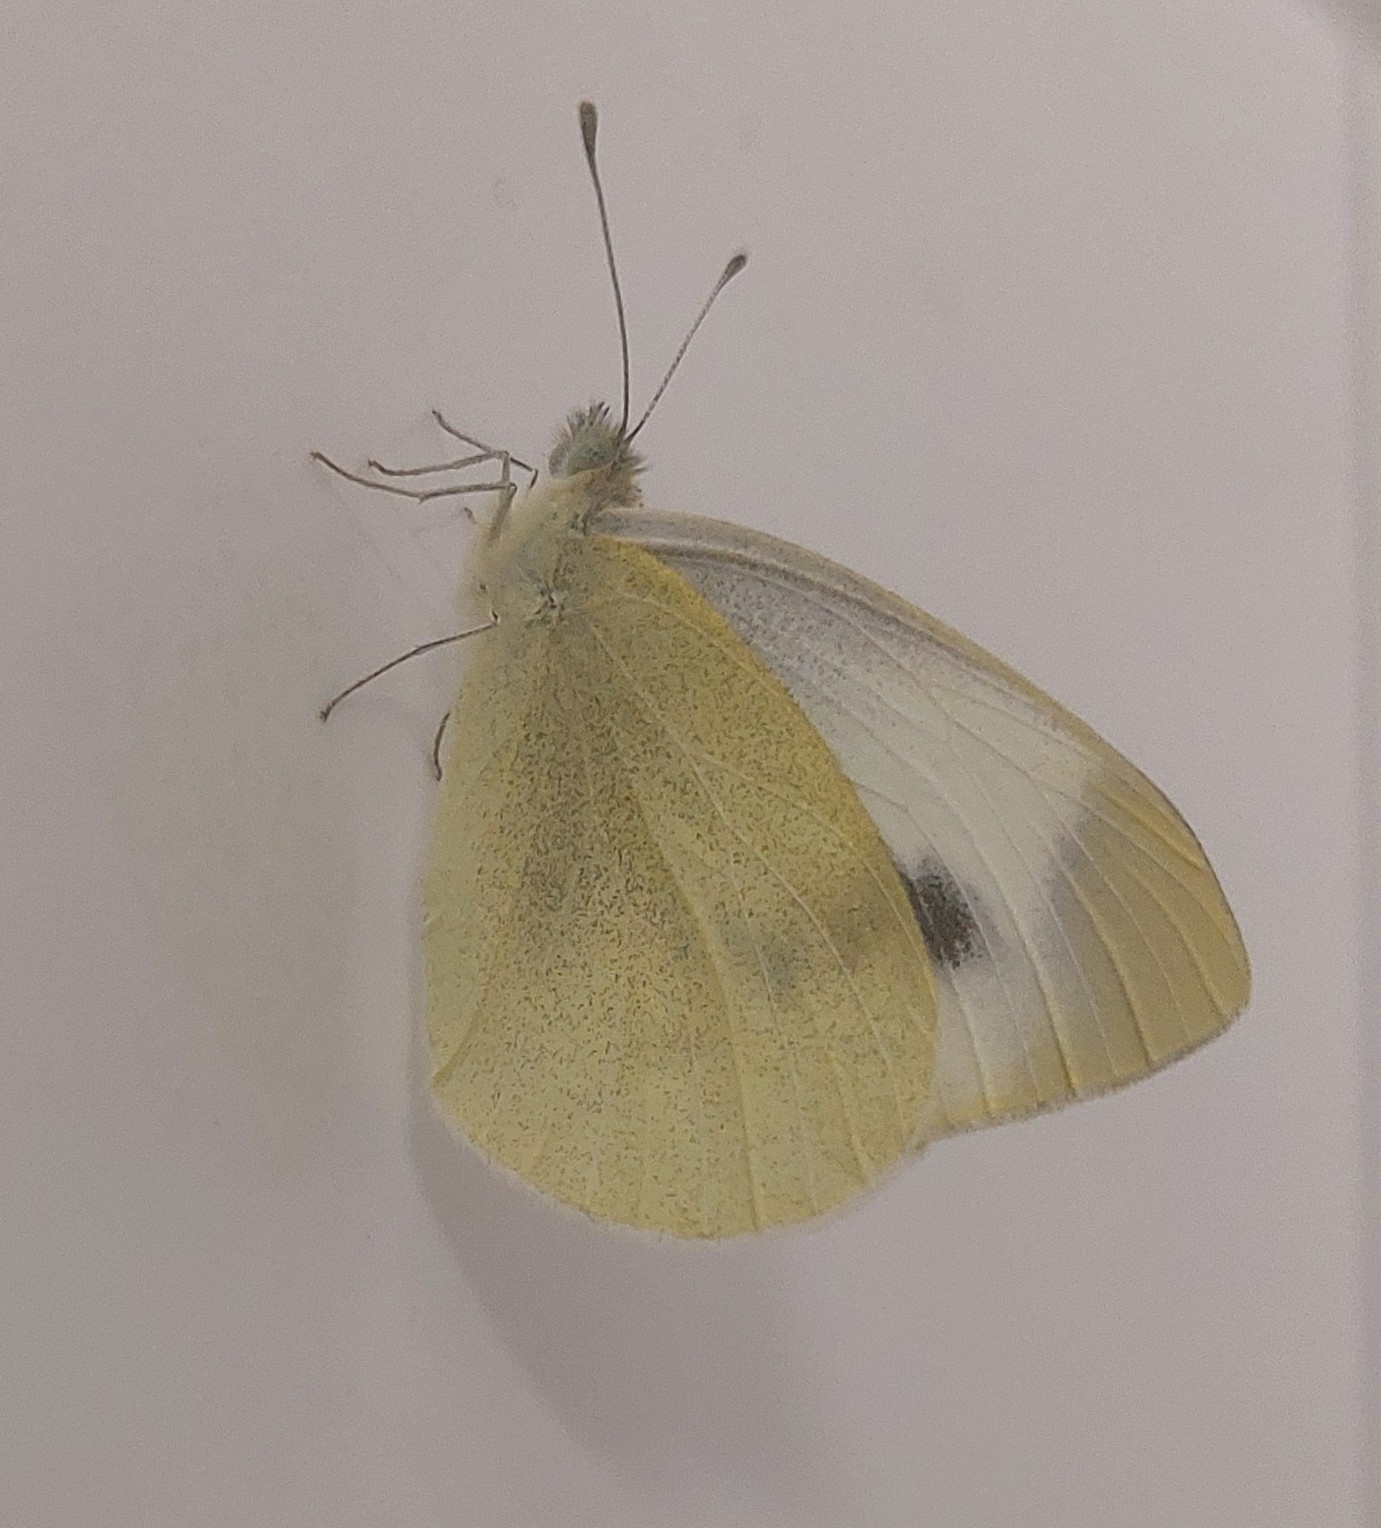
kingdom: Animalia
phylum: Arthropoda
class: Insecta
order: Lepidoptera
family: Pieridae
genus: Pieris
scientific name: Pieris mannii
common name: Southern small white
